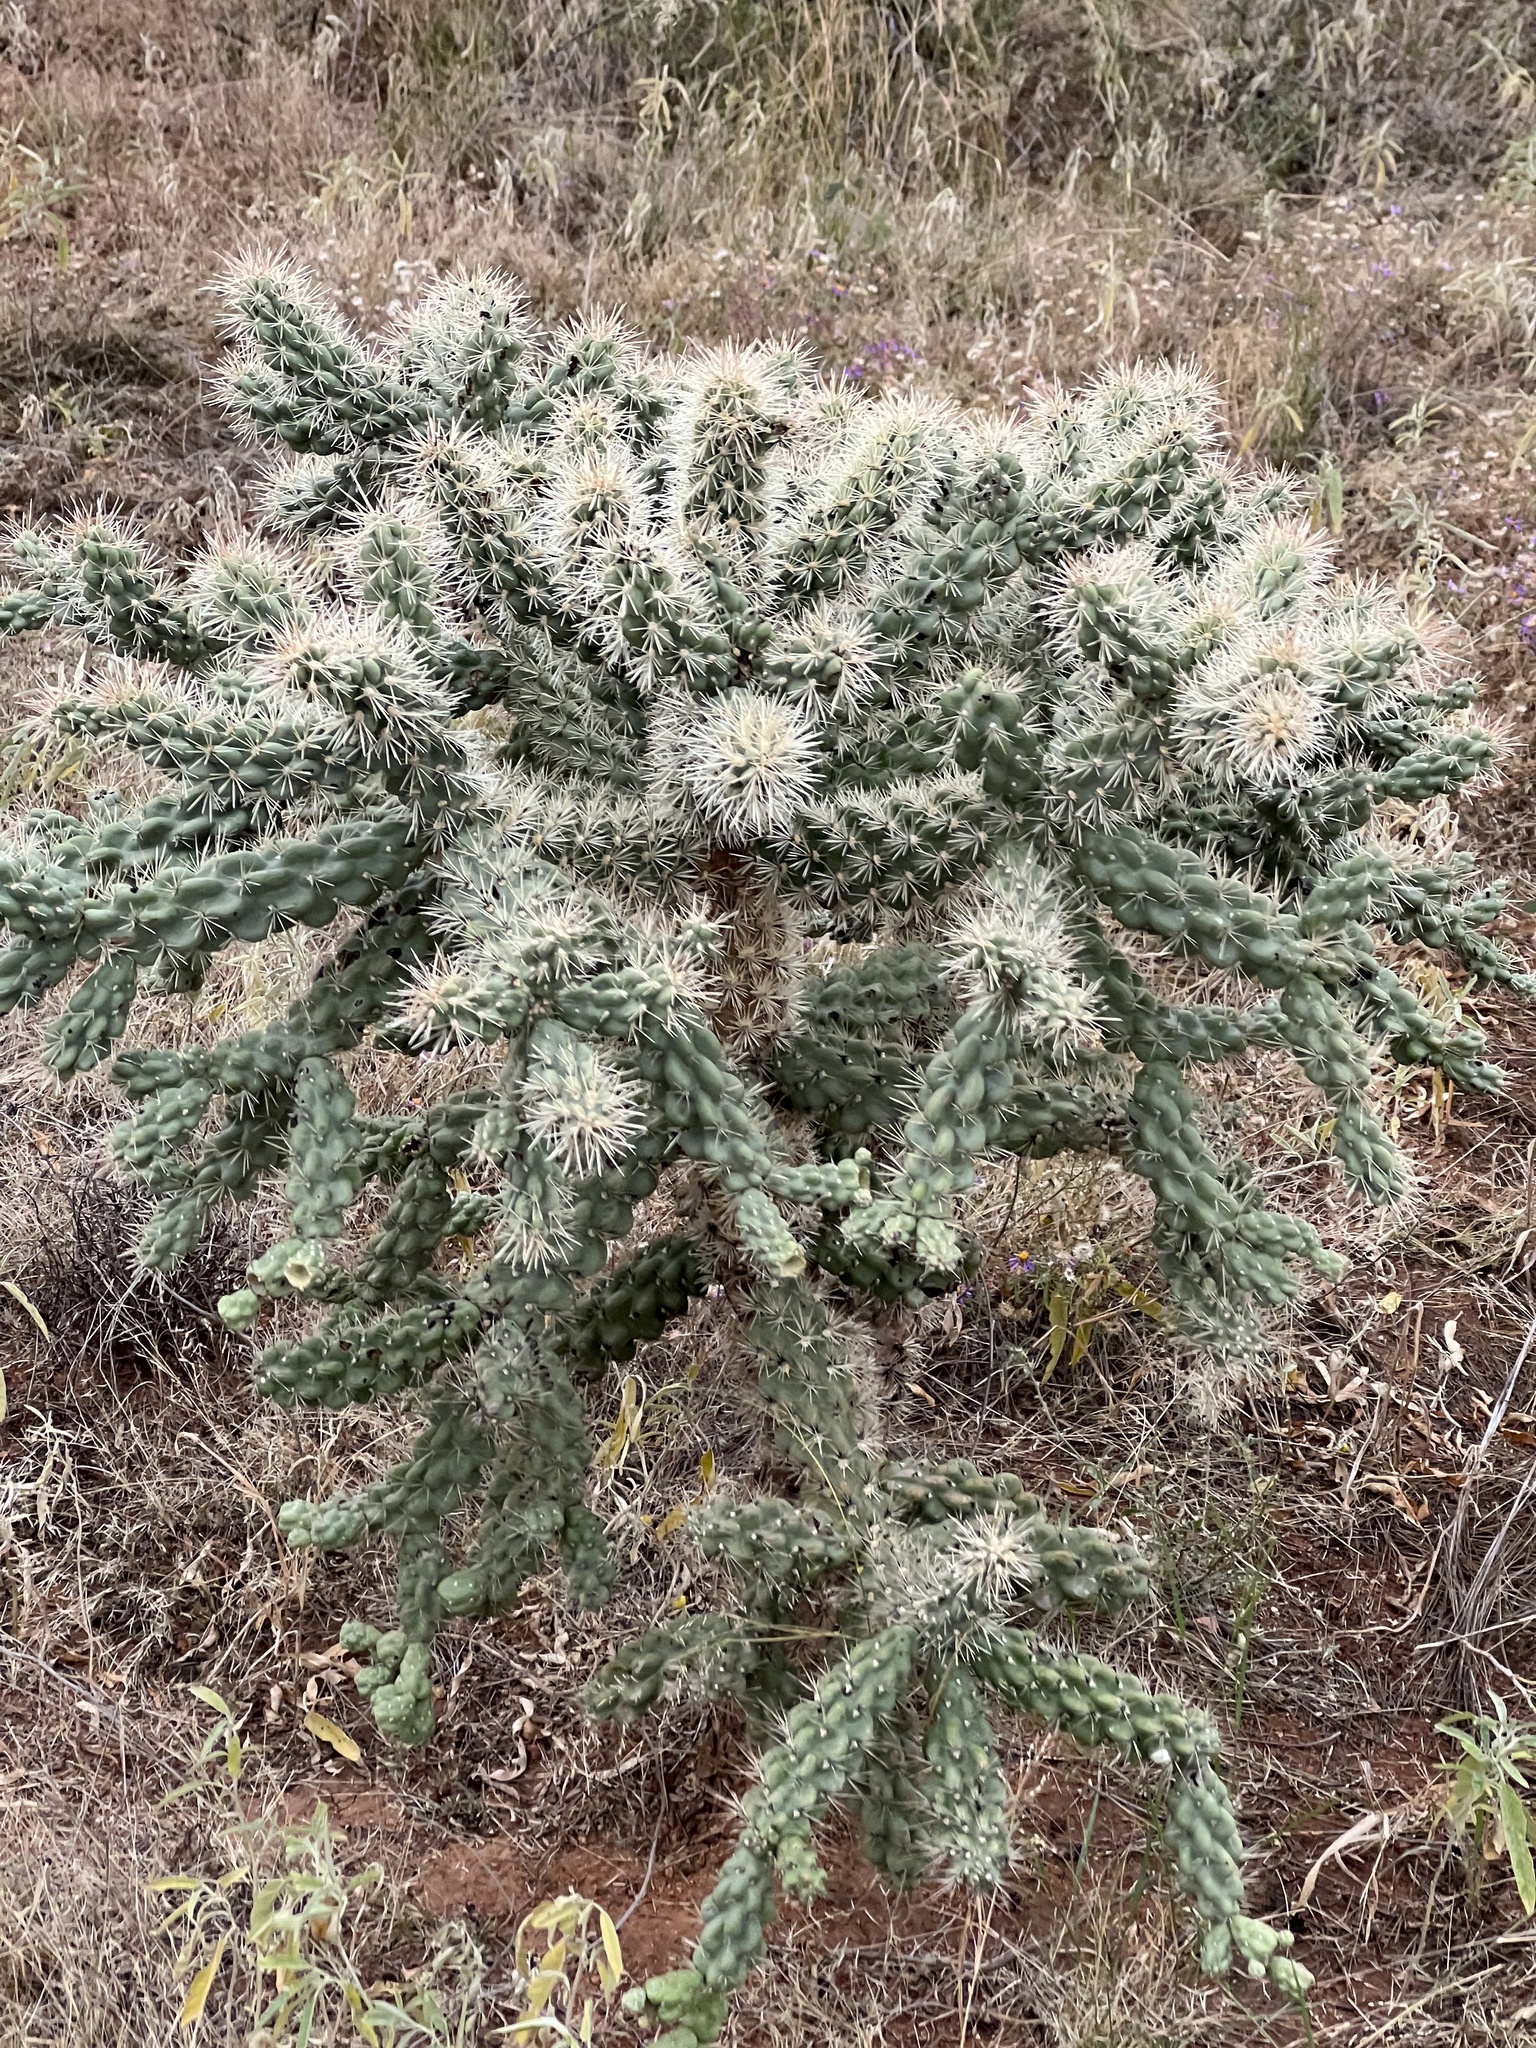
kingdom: Plantae
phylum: Tracheophyta
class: Magnoliopsida
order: Caryophyllales
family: Cactaceae
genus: Cylindropuntia
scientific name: Cylindropuntia fulgida
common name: Jumping cholla
